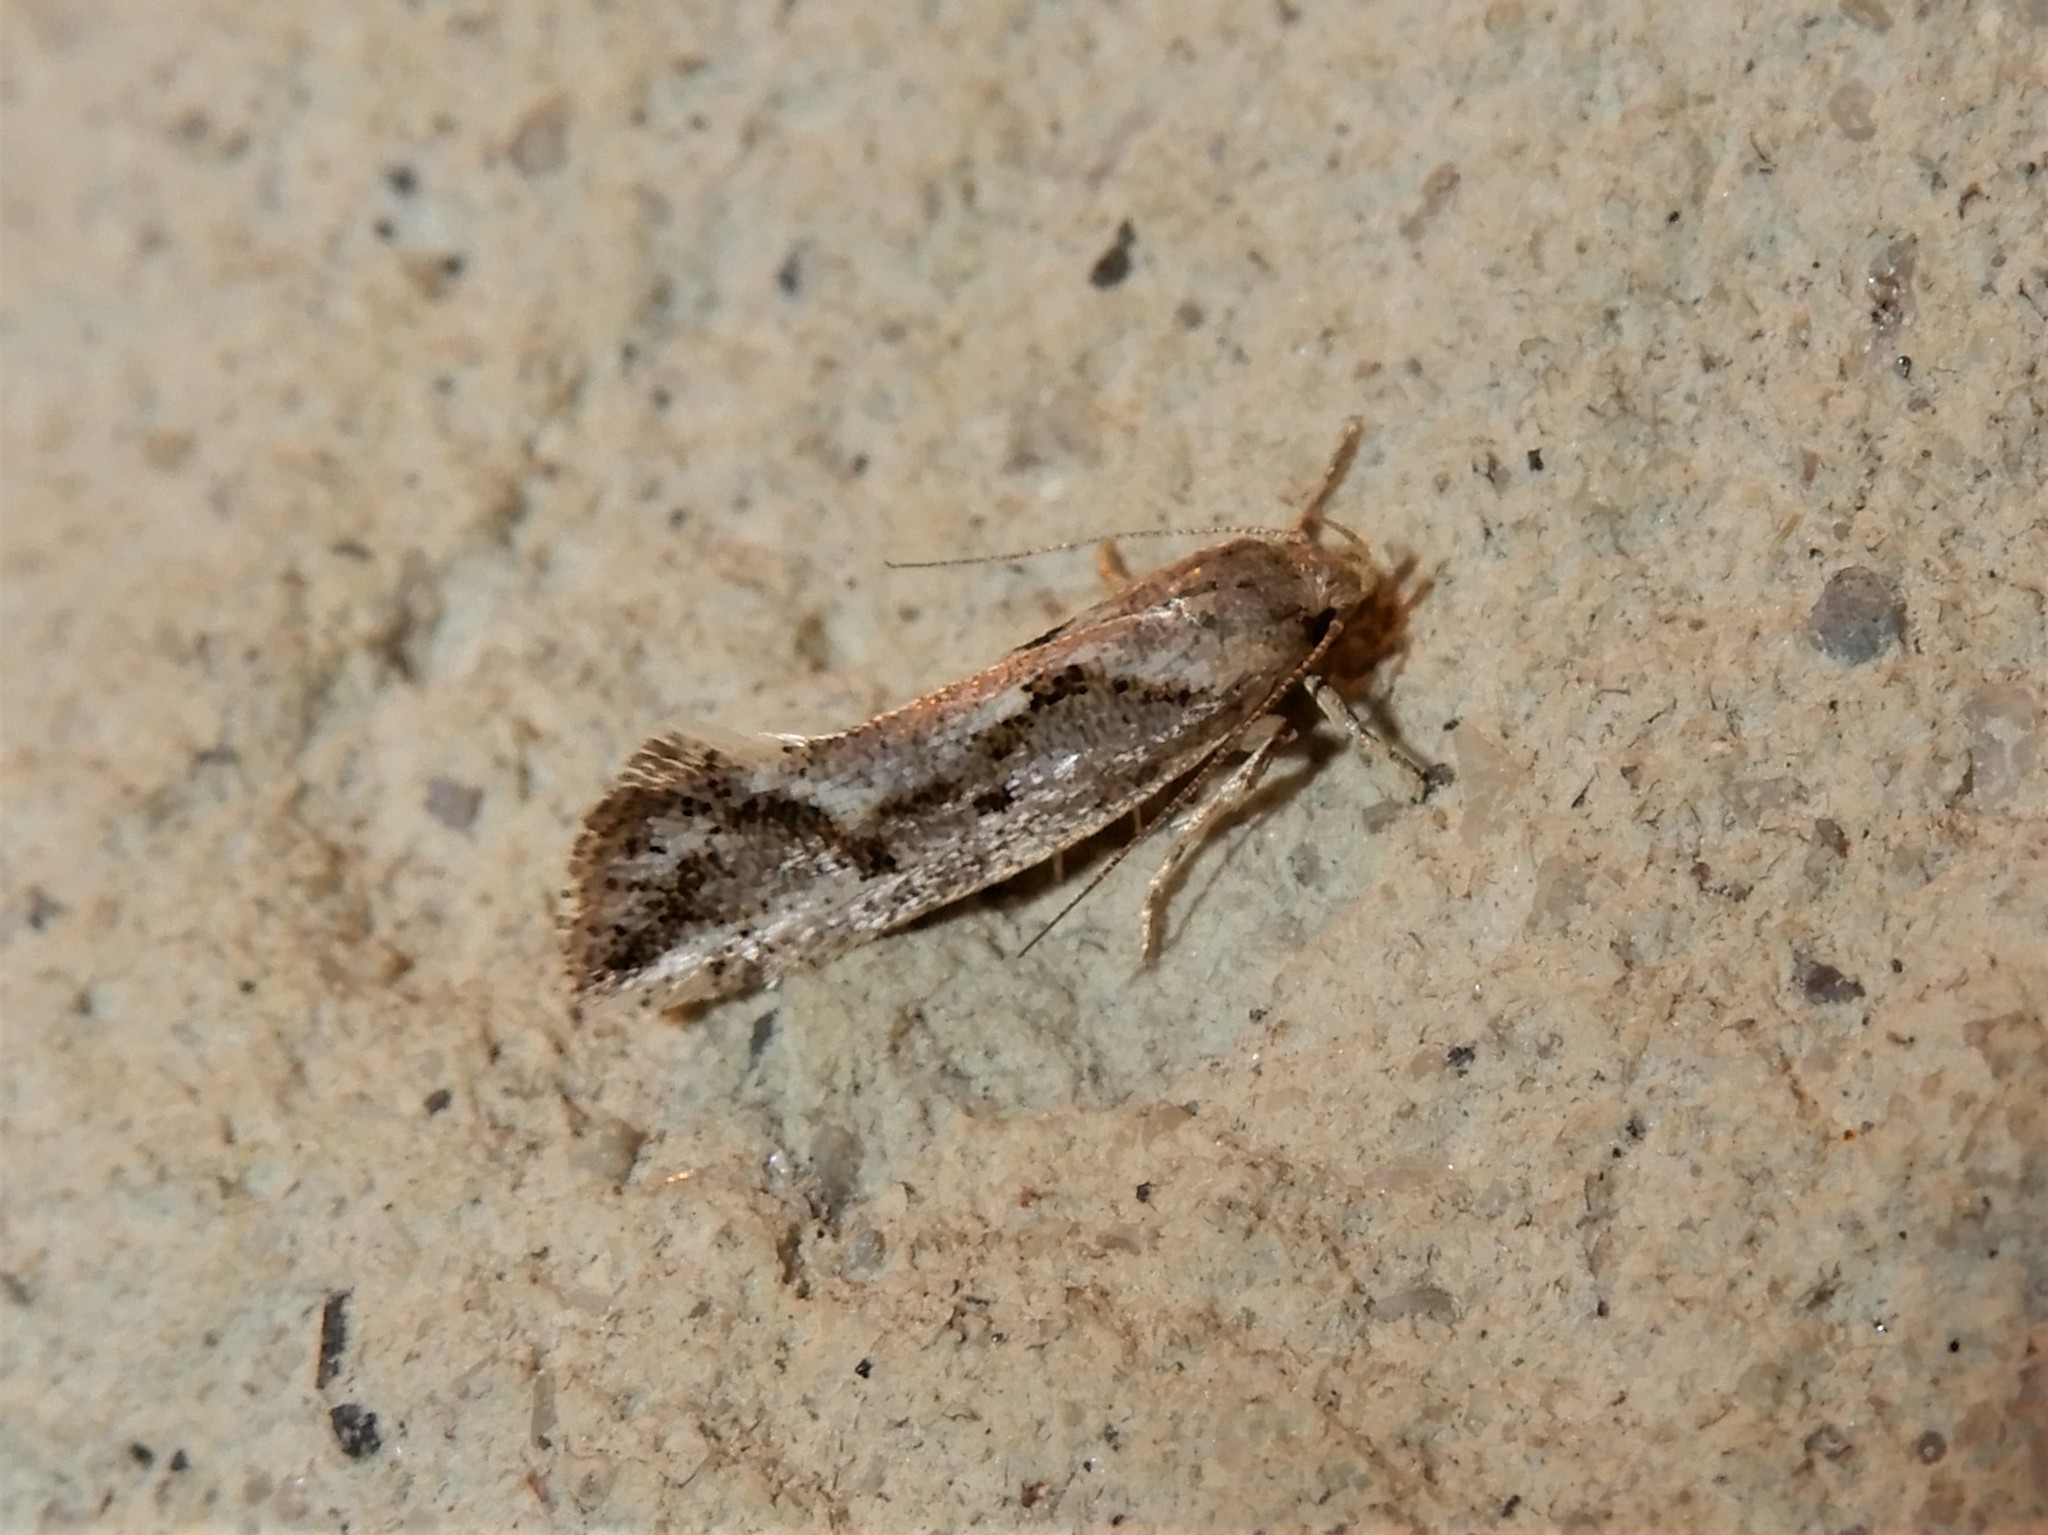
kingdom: Animalia
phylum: Arthropoda
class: Insecta
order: Lepidoptera
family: Oecophoridae
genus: Tingena
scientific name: Tingena hemimochla
